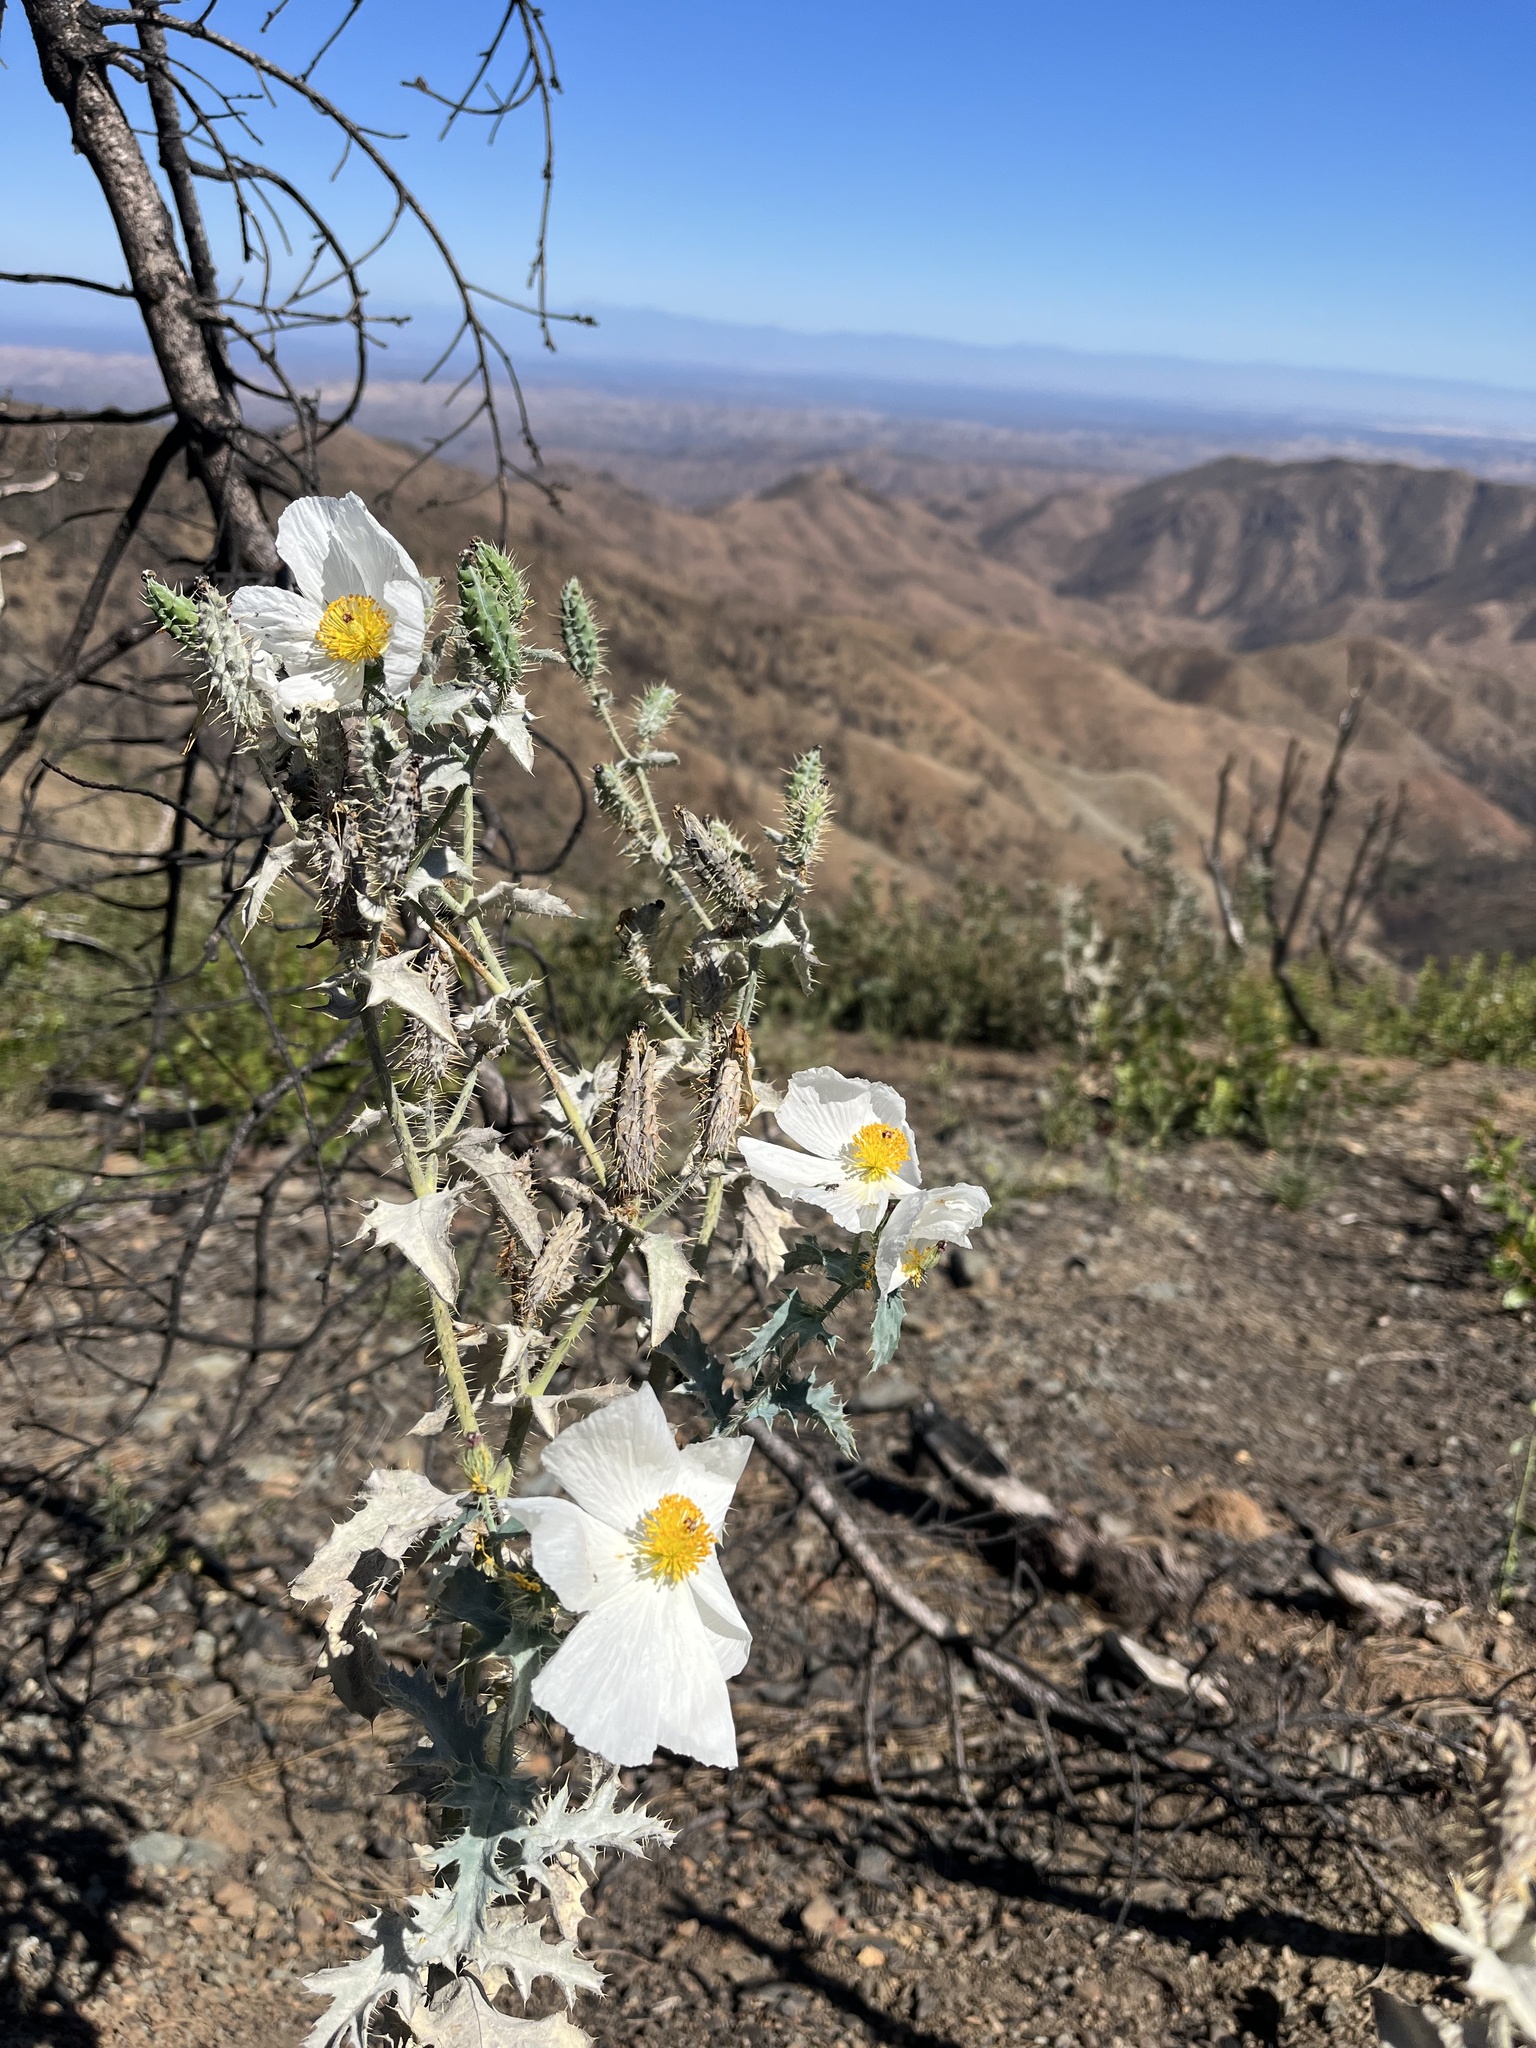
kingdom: Plantae
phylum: Tracheophyta
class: Magnoliopsida
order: Ranunculales
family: Papaveraceae
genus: Argemone
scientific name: Argemone munita
